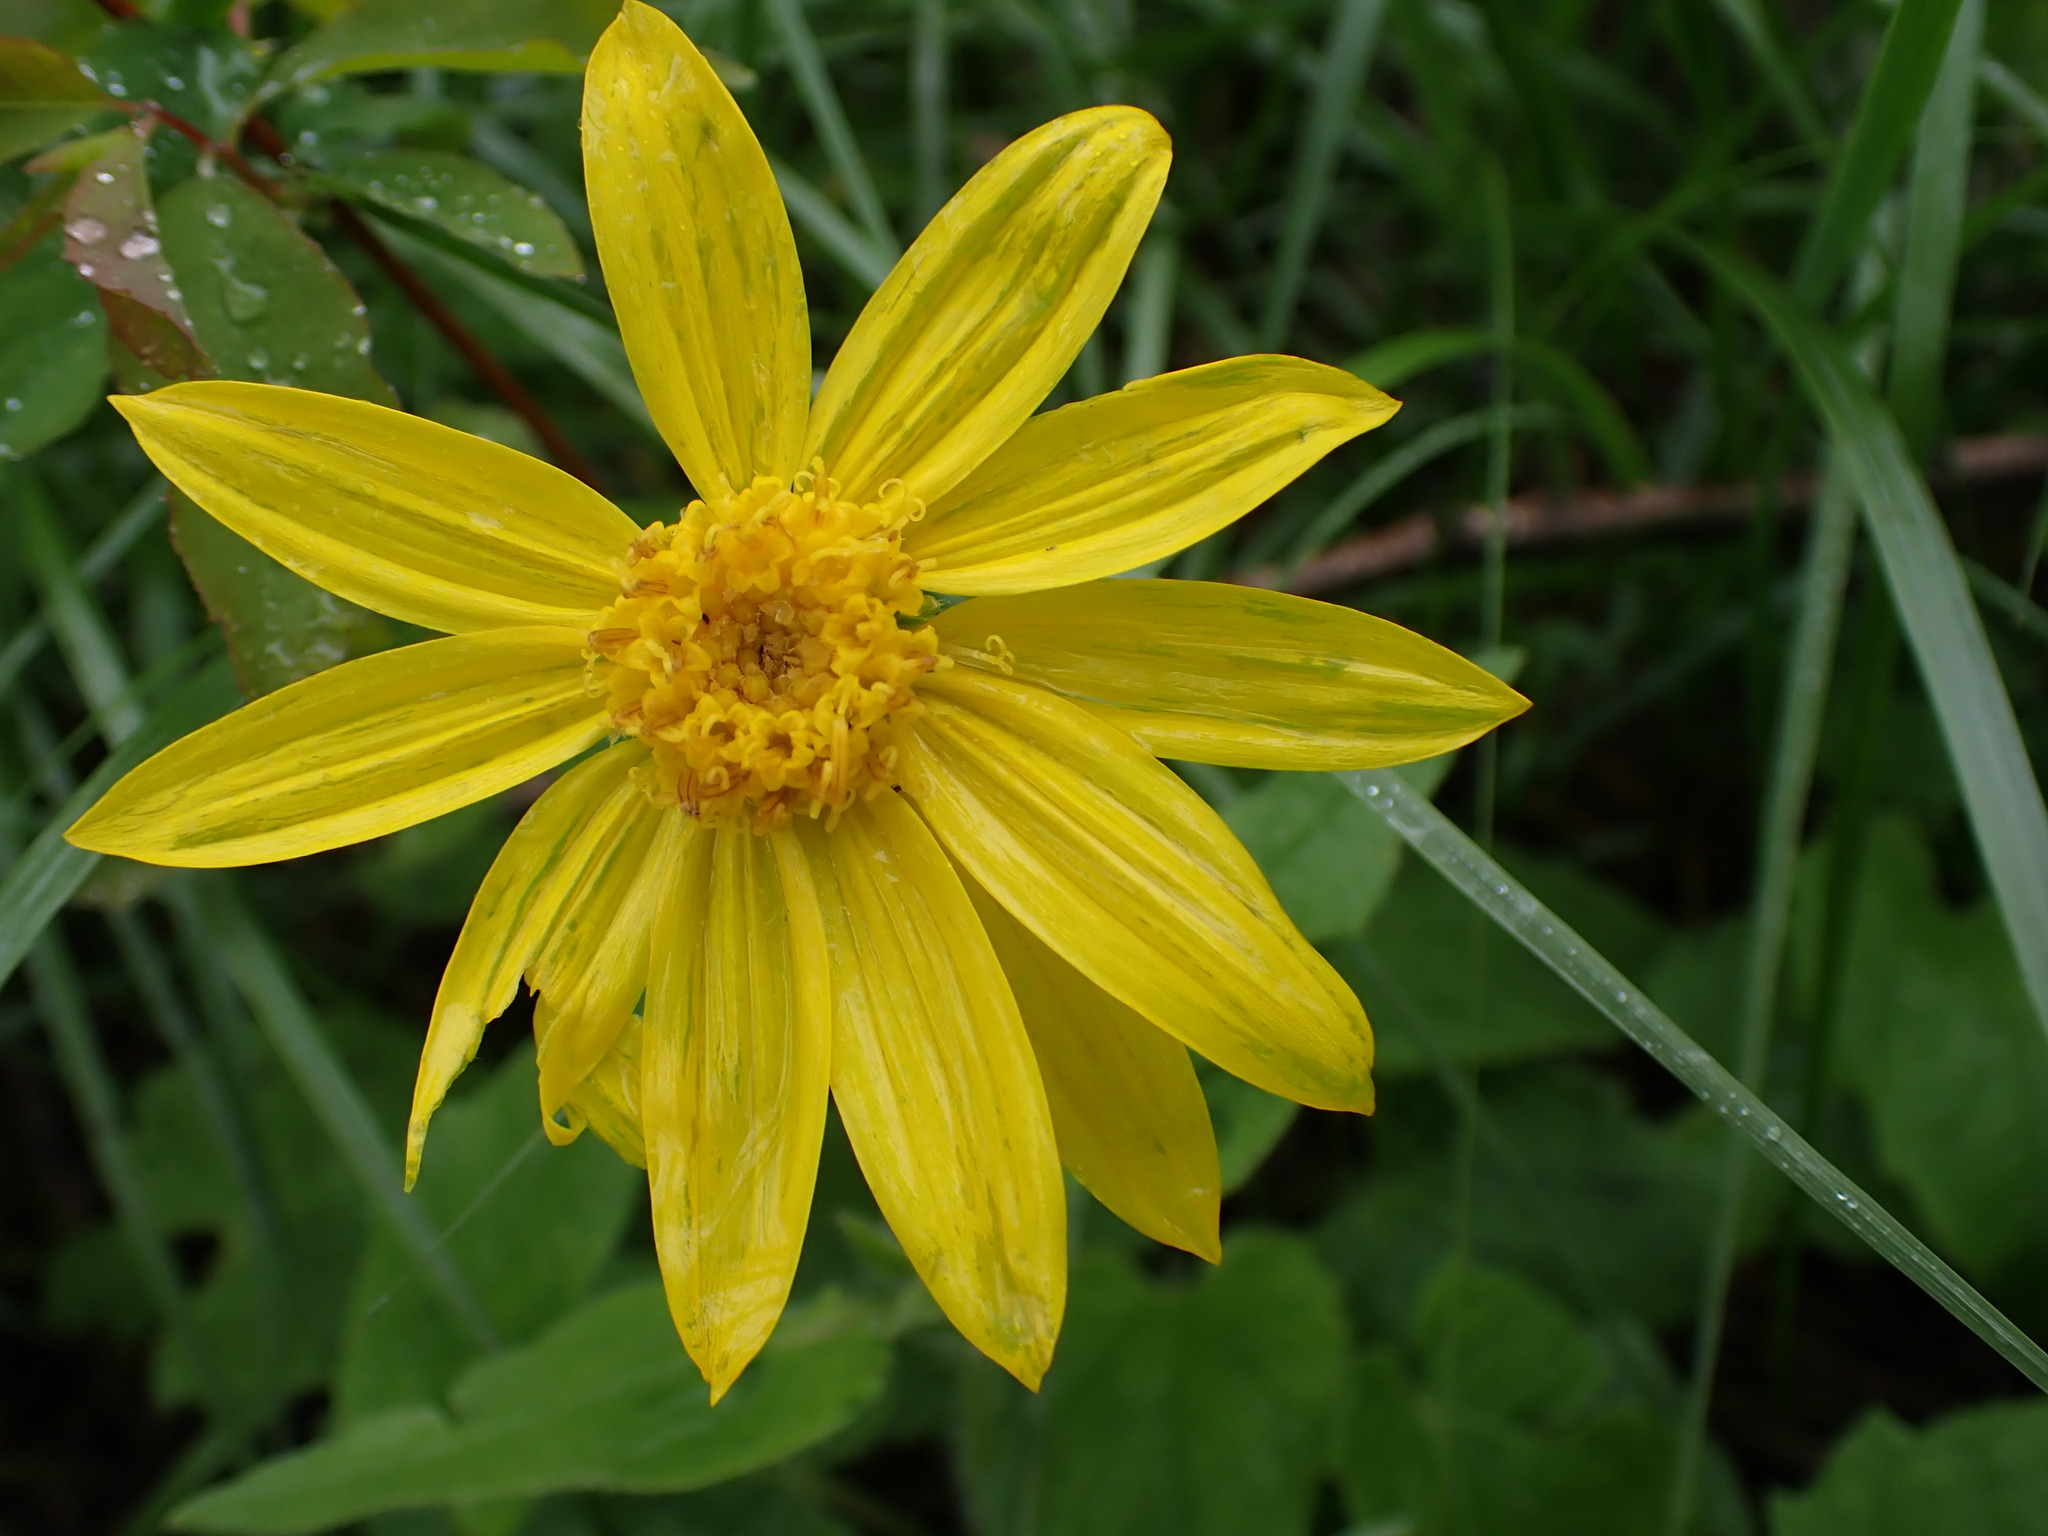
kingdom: Plantae
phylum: Tracheophyta
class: Magnoliopsida
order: Asterales
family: Asteraceae
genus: Arnica
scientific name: Arnica cordifolia
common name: Heart-leaf arnica
